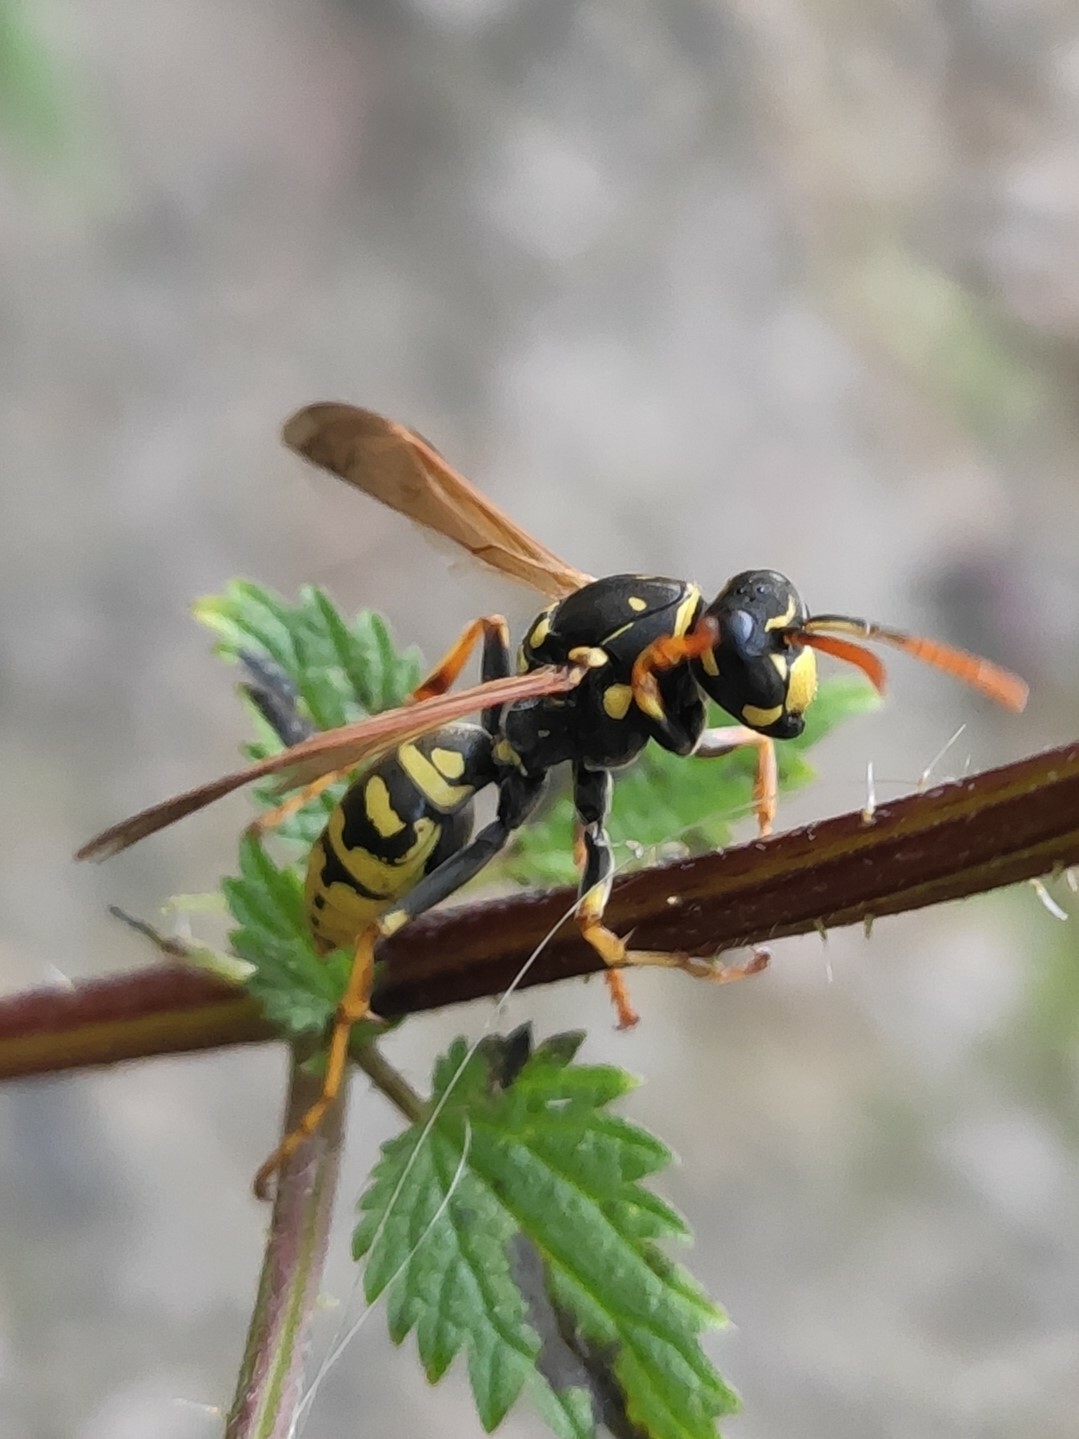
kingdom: Animalia
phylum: Arthropoda
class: Insecta
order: Hymenoptera
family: Eumenidae
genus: Polistes
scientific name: Polistes dominula
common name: Paper wasp
